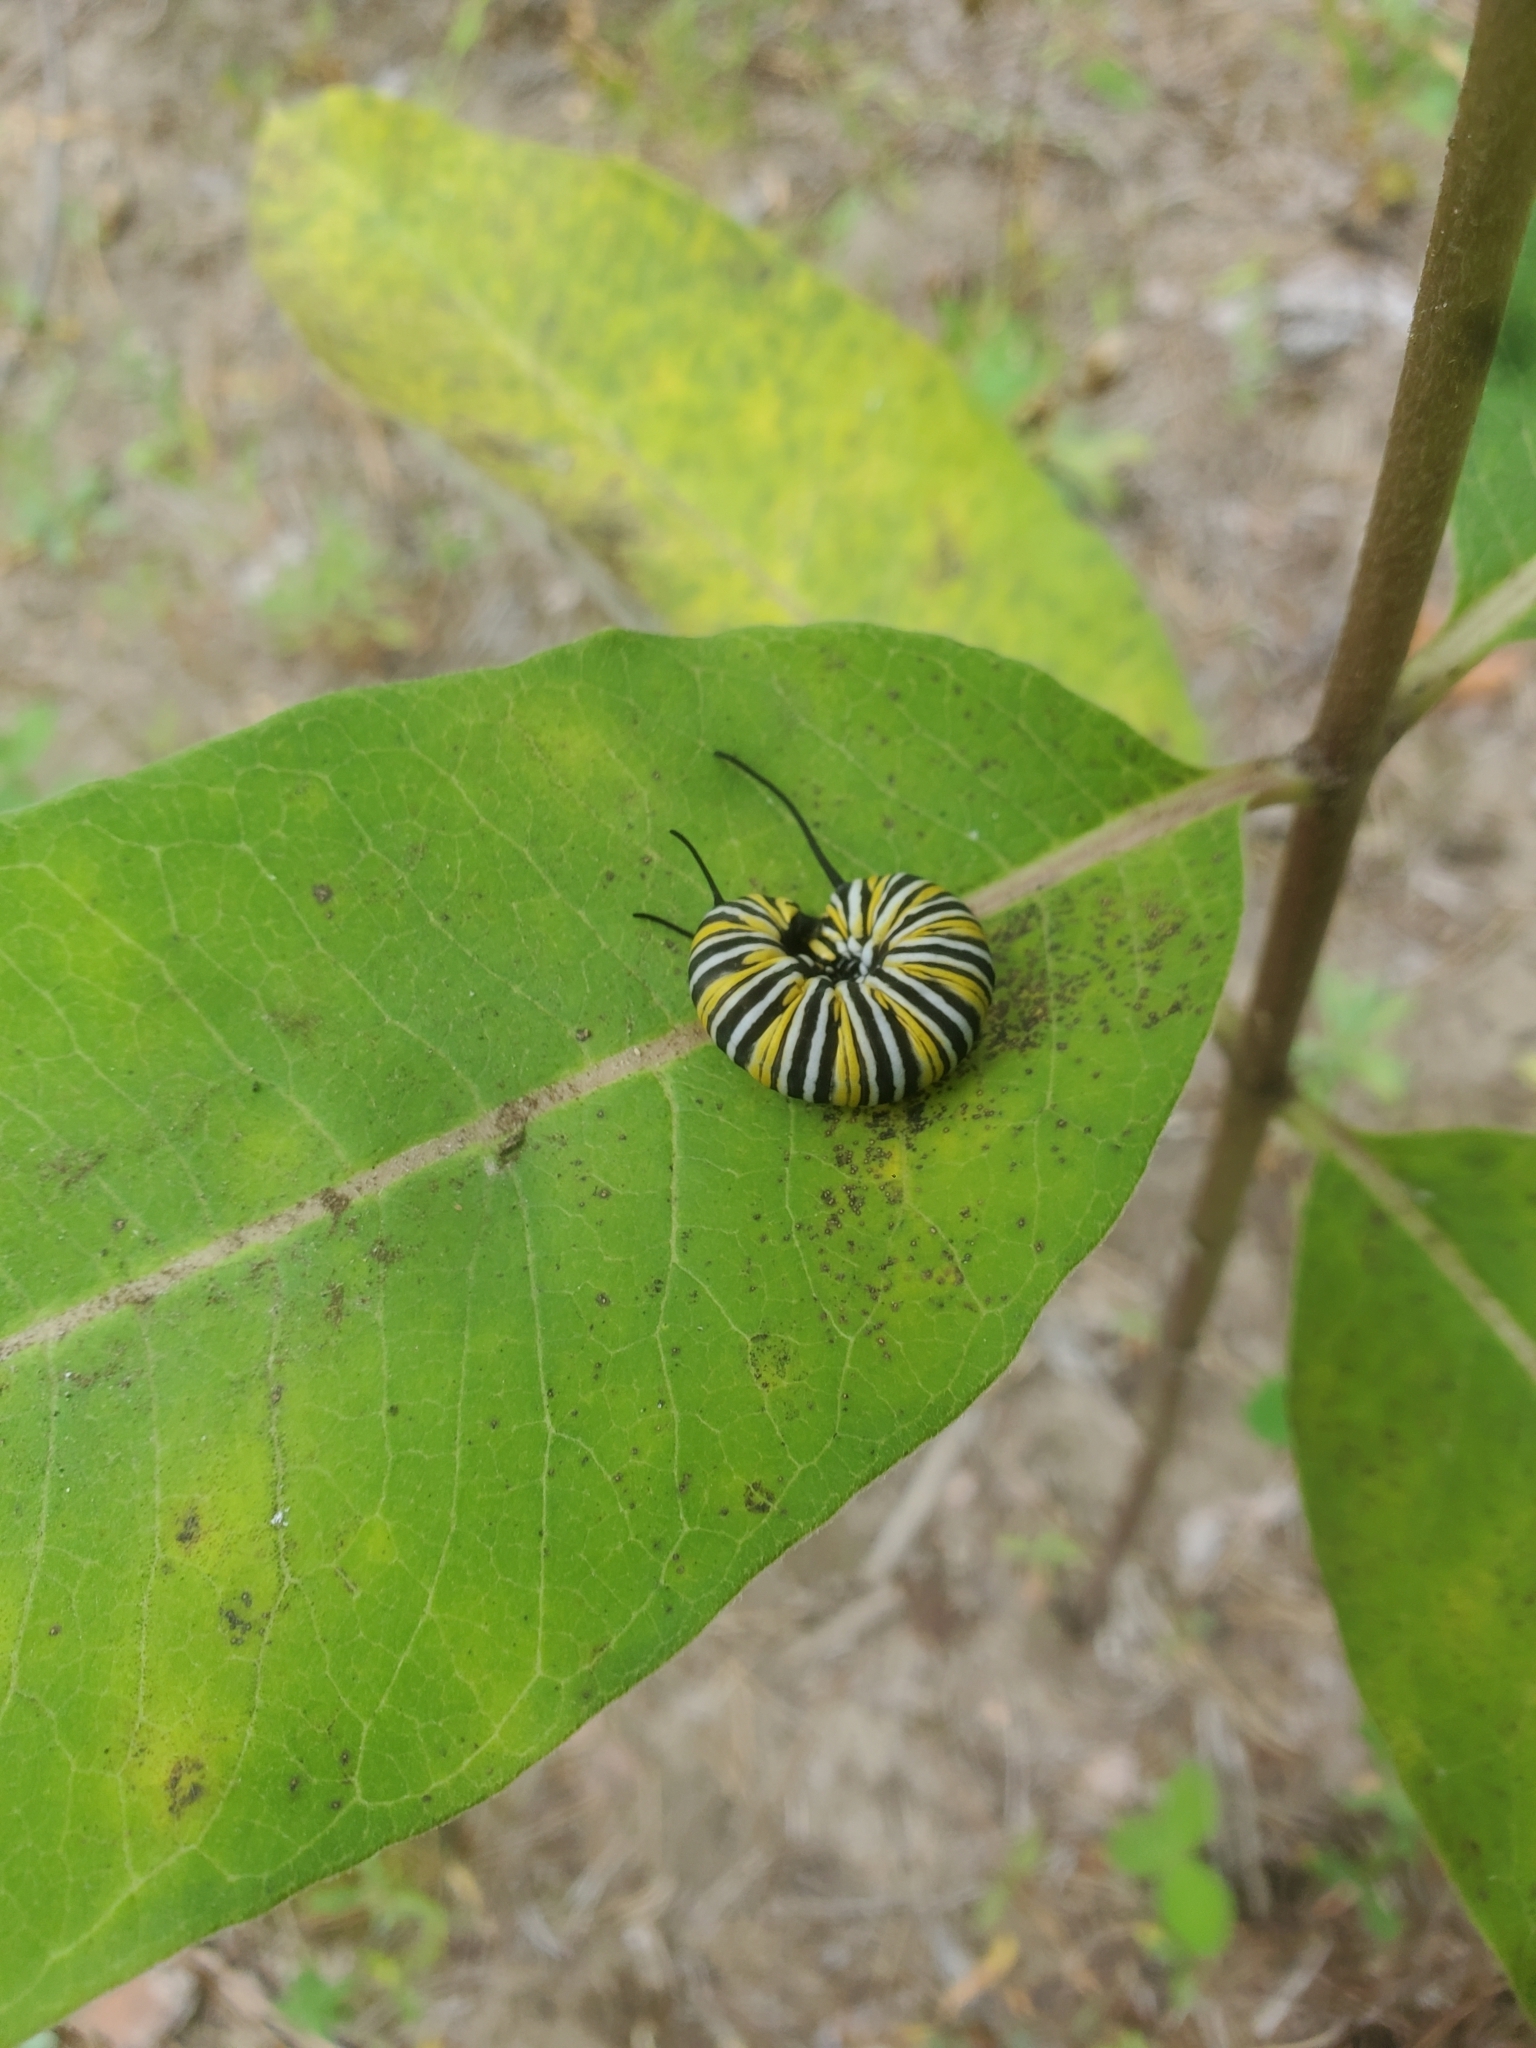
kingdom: Animalia
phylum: Arthropoda
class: Insecta
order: Lepidoptera
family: Nymphalidae
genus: Danaus
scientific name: Danaus plexippus
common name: Monarch
